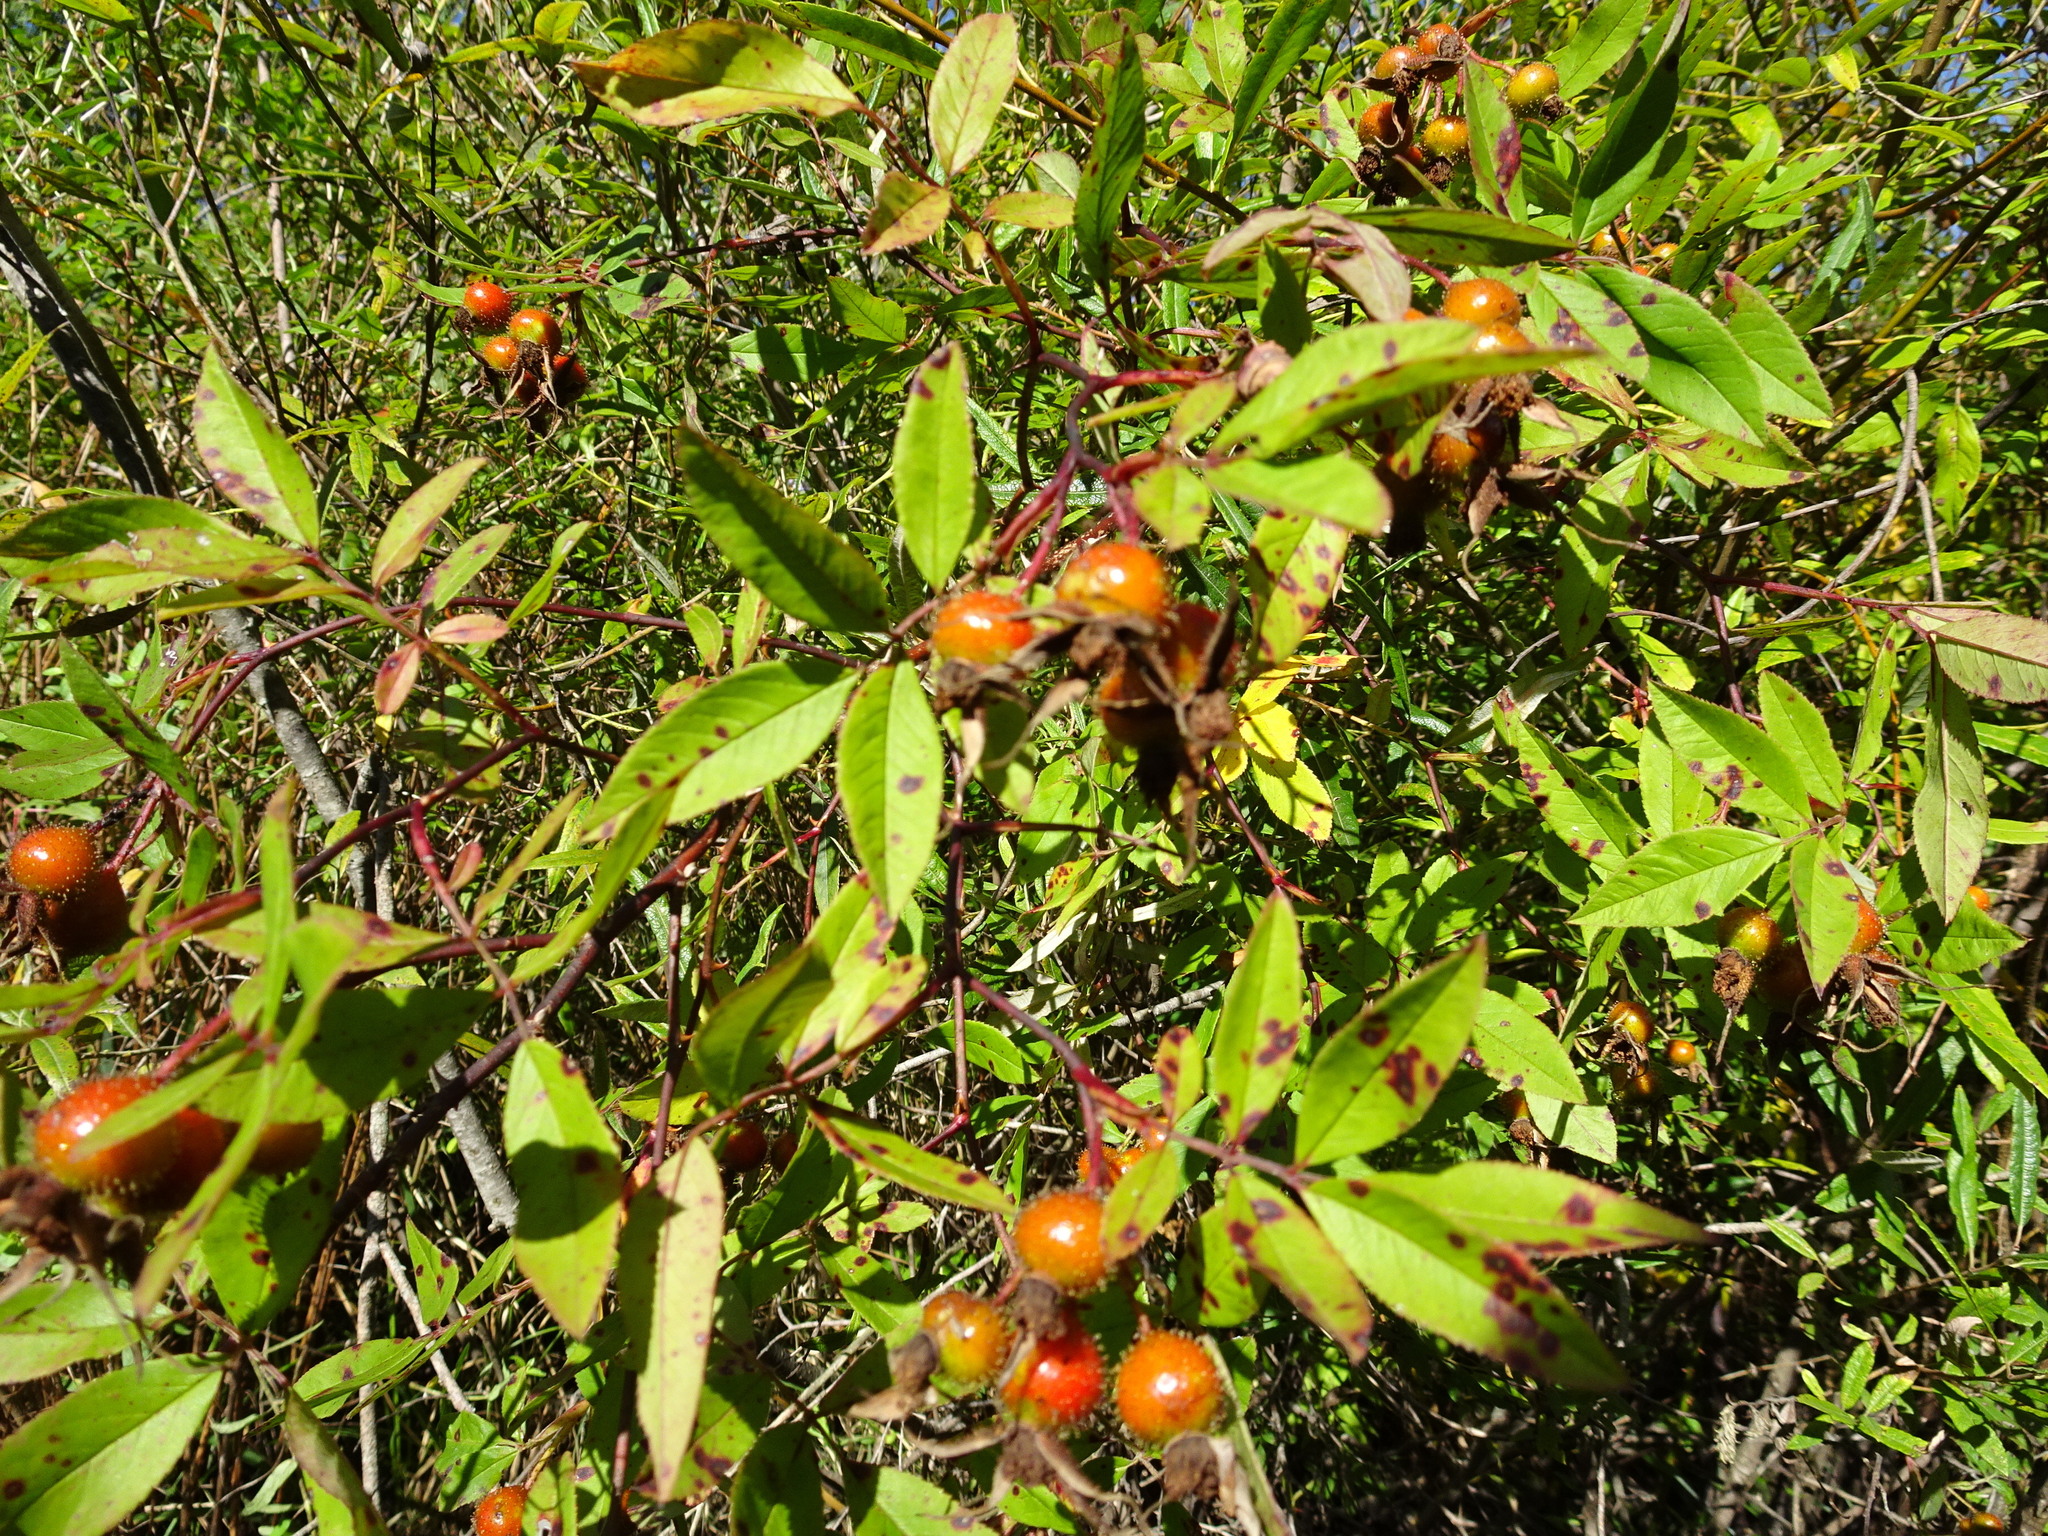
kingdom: Plantae
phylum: Tracheophyta
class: Magnoliopsida
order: Rosales
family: Rosaceae
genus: Rosa
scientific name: Rosa palustris
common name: Swamp rose
